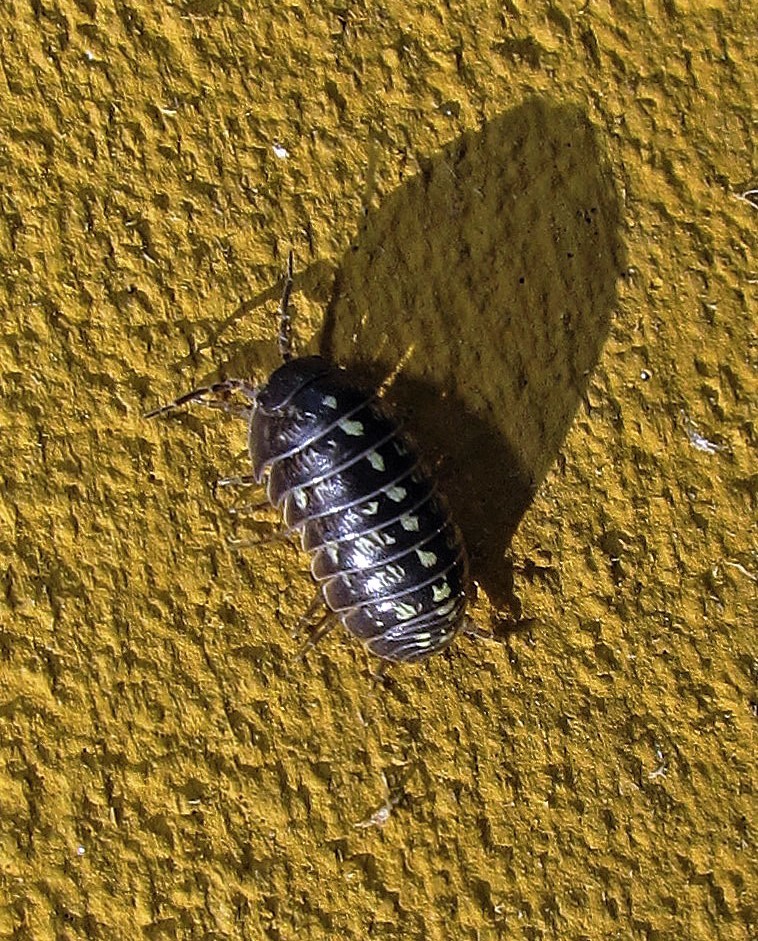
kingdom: Animalia
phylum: Arthropoda
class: Malacostraca
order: Isopoda
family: Armadillidiidae
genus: Armadillidium
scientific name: Armadillidium vulgare
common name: Common pill woodlouse
